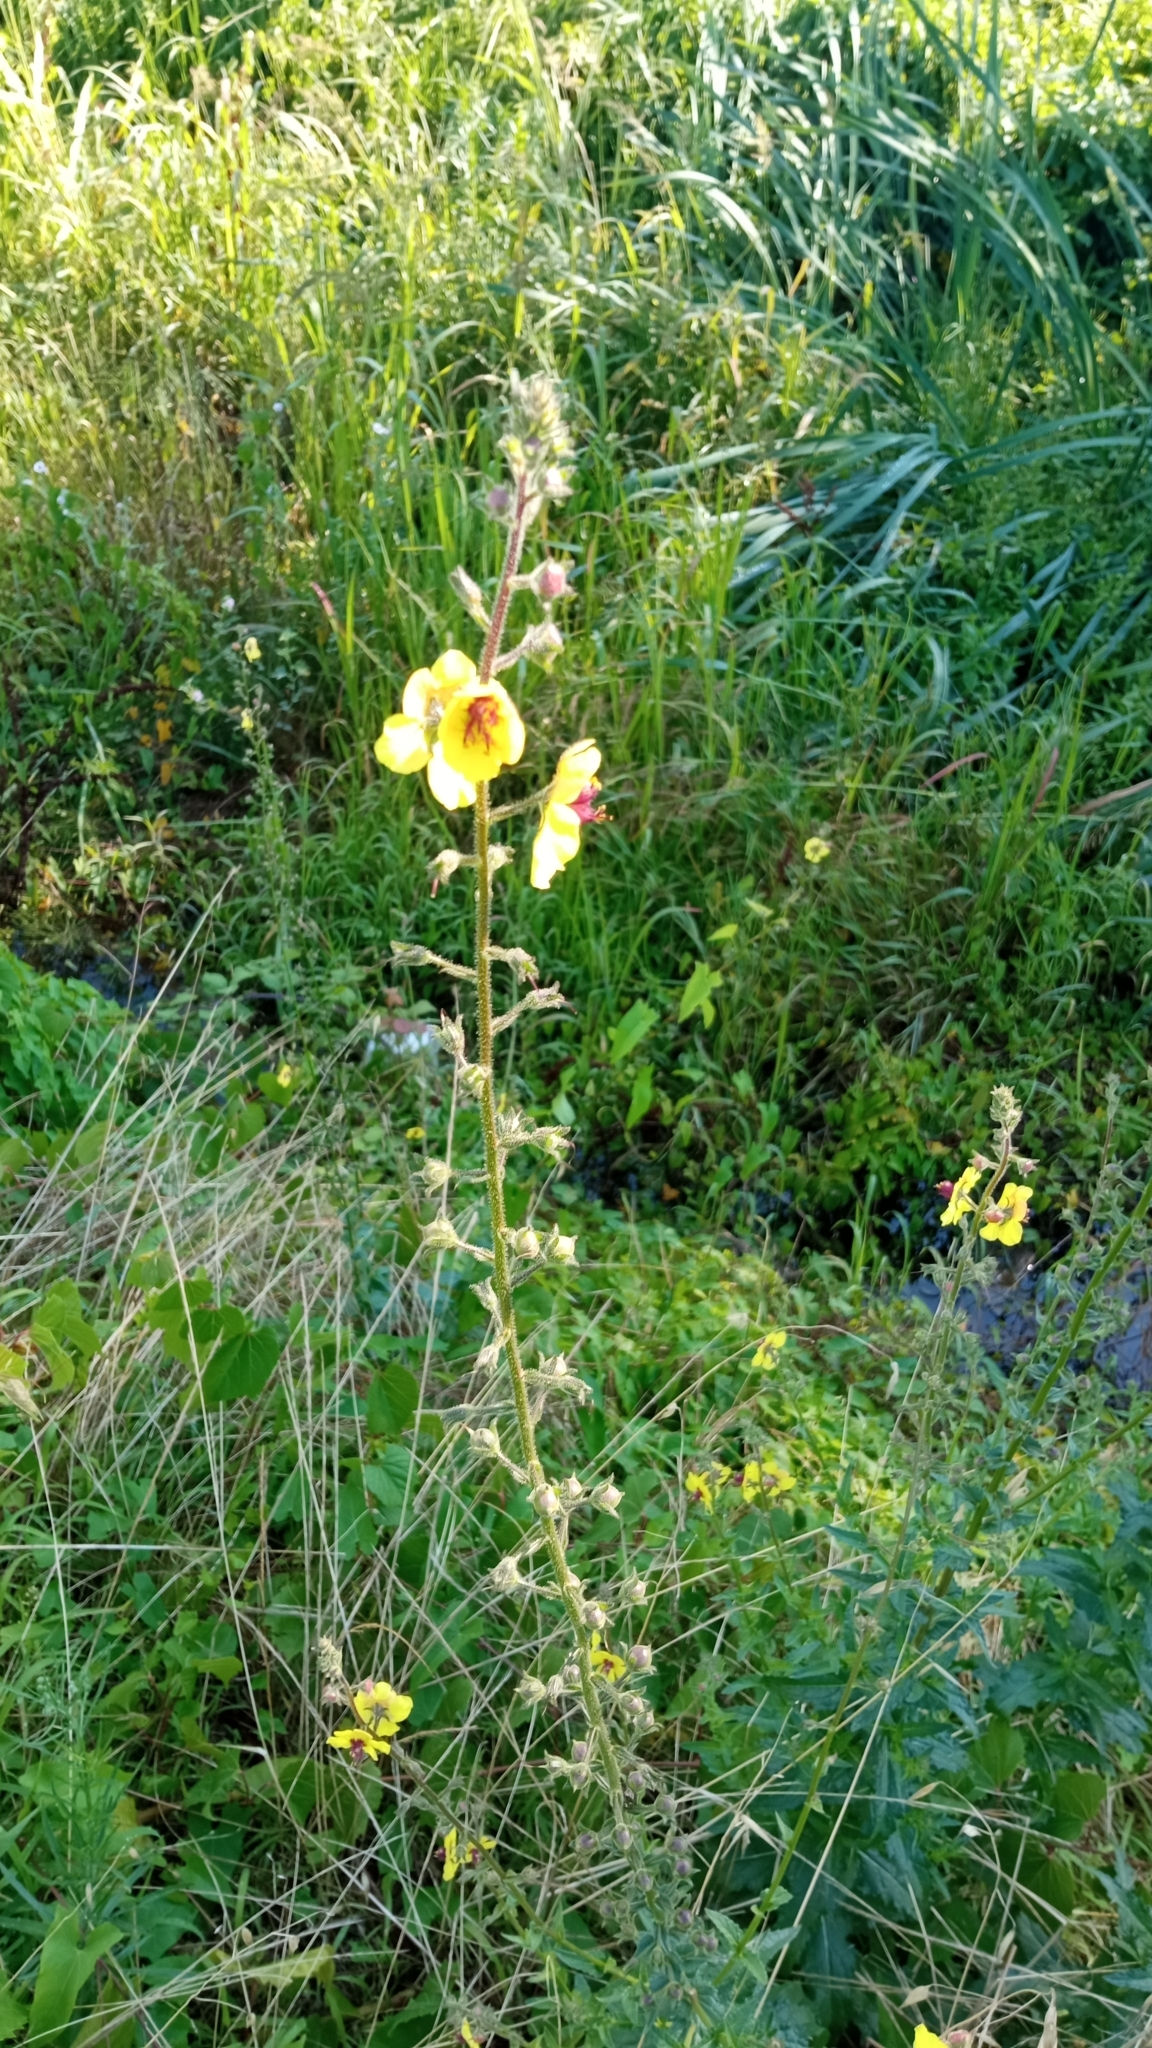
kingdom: Plantae
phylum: Tracheophyta
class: Magnoliopsida
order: Lamiales
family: Scrophulariaceae
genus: Verbascum
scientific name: Verbascum blattaria
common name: Moth mullein
